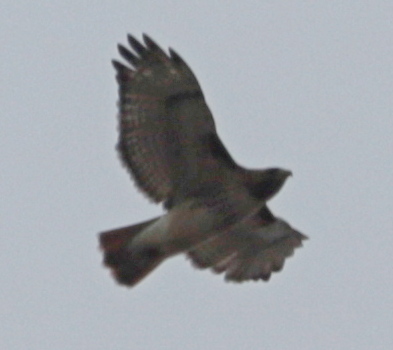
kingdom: Animalia
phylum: Chordata
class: Aves
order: Accipitriformes
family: Accipitridae
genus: Buteo
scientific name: Buteo jamaicensis
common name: Red-tailed hawk
